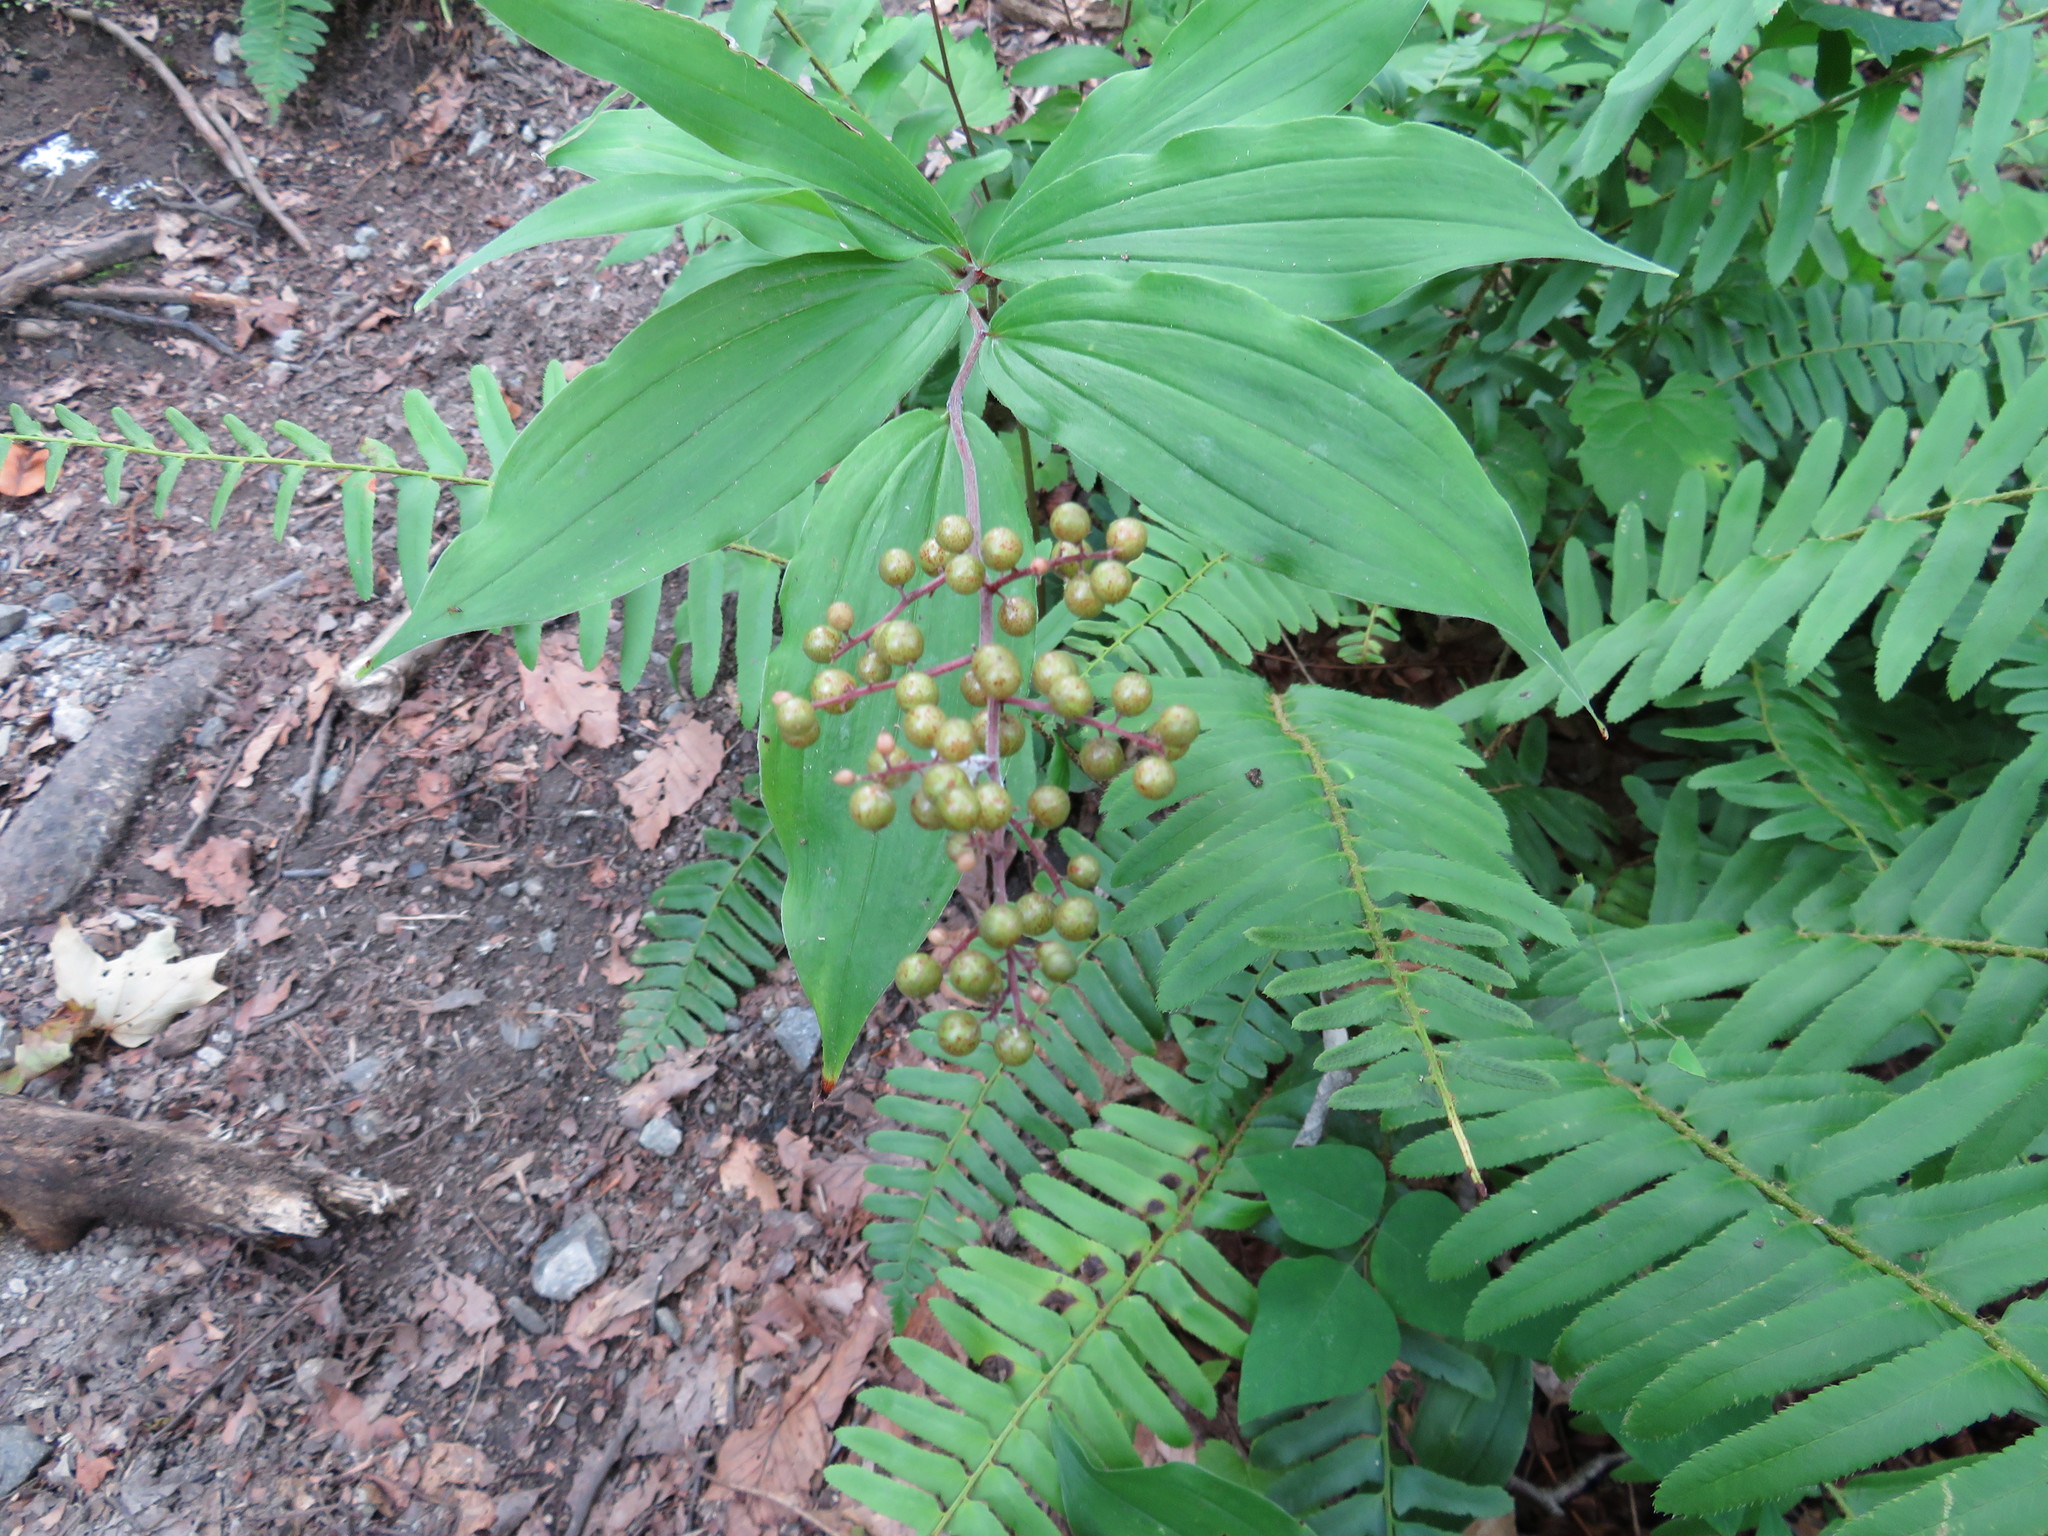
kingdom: Plantae
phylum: Tracheophyta
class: Liliopsida
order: Asparagales
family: Asparagaceae
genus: Maianthemum
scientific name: Maianthemum racemosum
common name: False spikenard
